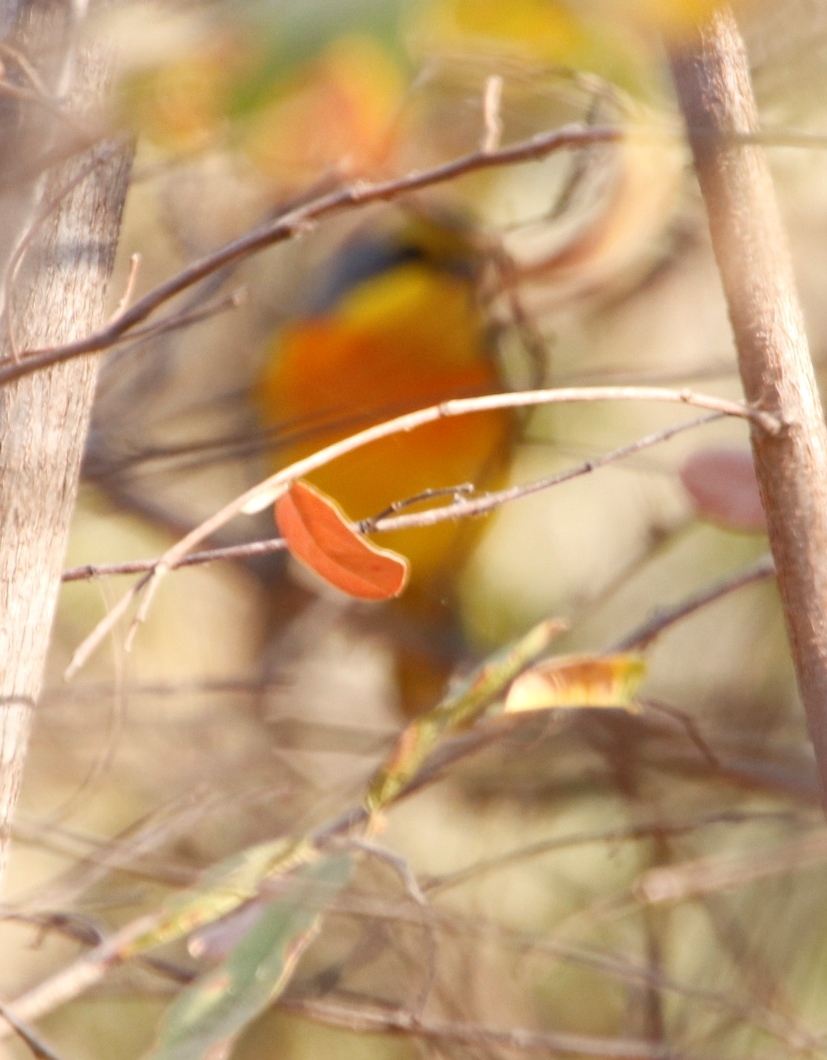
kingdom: Animalia
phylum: Chordata
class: Aves
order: Passeriformes
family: Malaconotidae
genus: Chlorophoneus
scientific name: Chlorophoneus sulfureopectus
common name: Orange-breasted bushshrike
